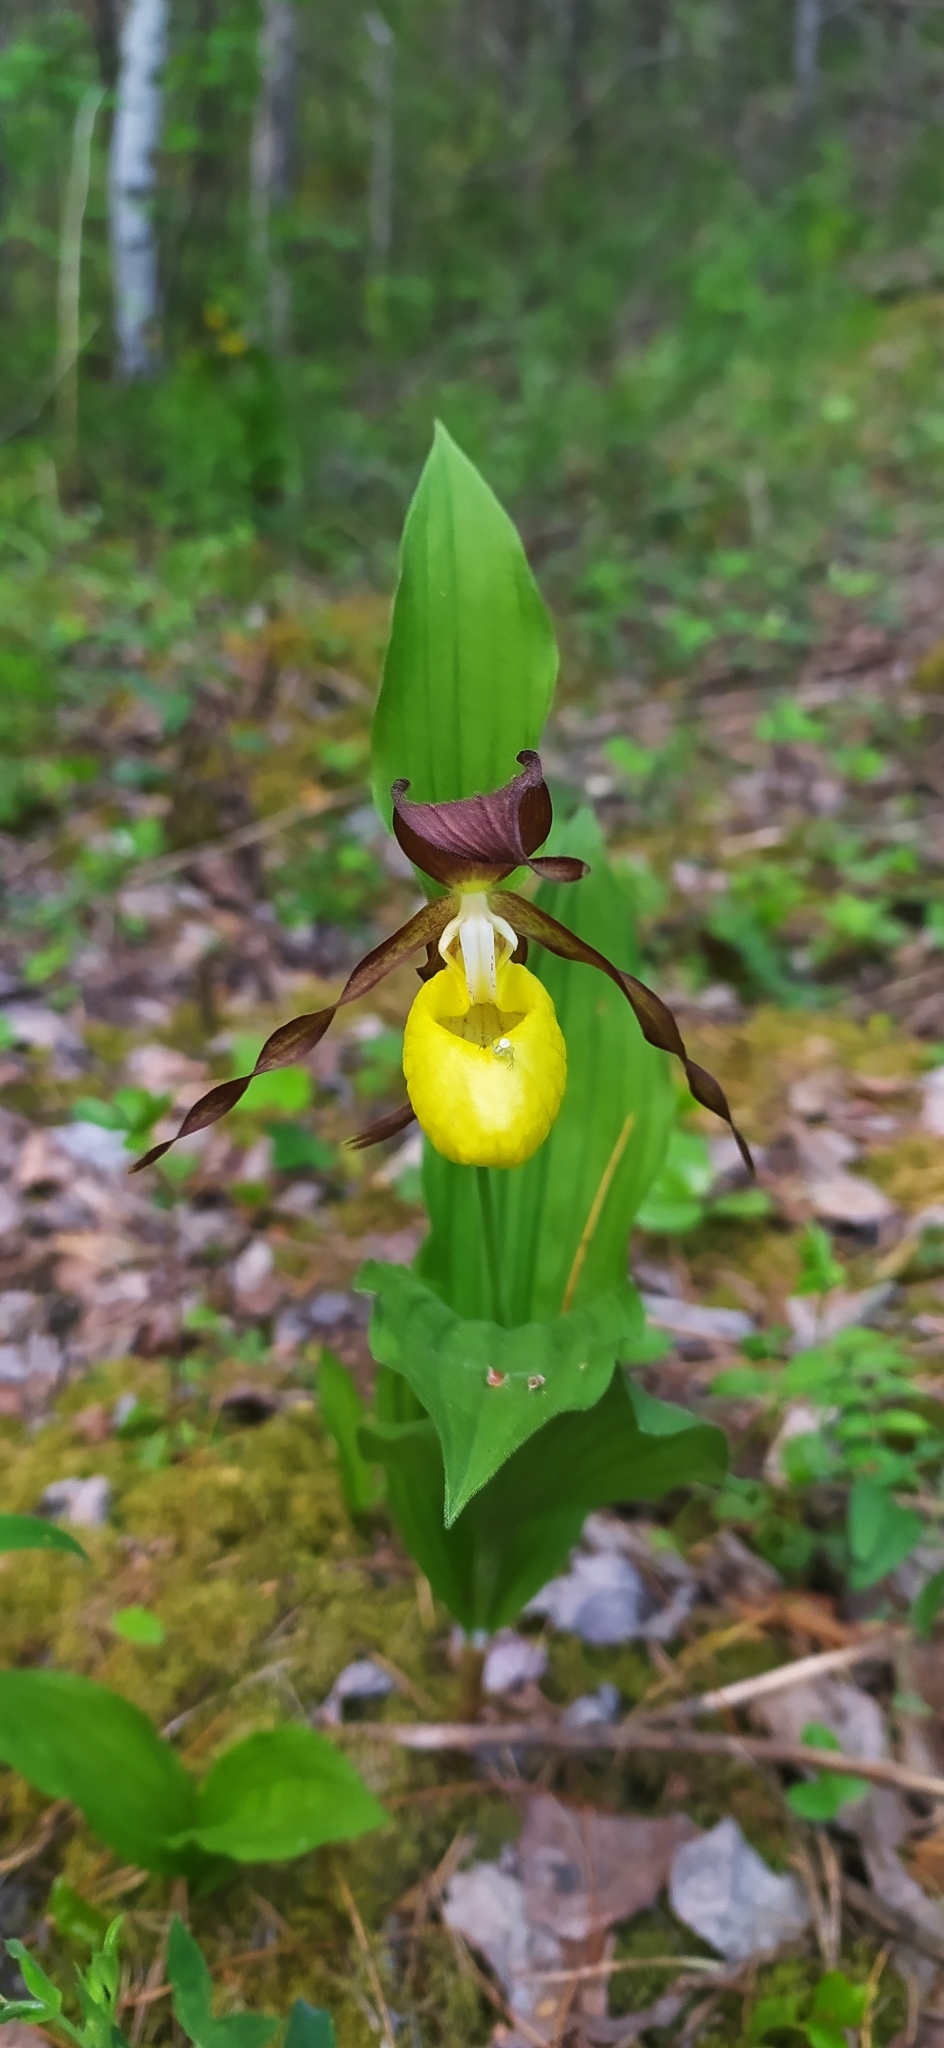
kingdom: Plantae
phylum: Tracheophyta
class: Liliopsida
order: Asparagales
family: Orchidaceae
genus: Cypripedium
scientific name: Cypripedium calceolus
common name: Lady's-slipper
